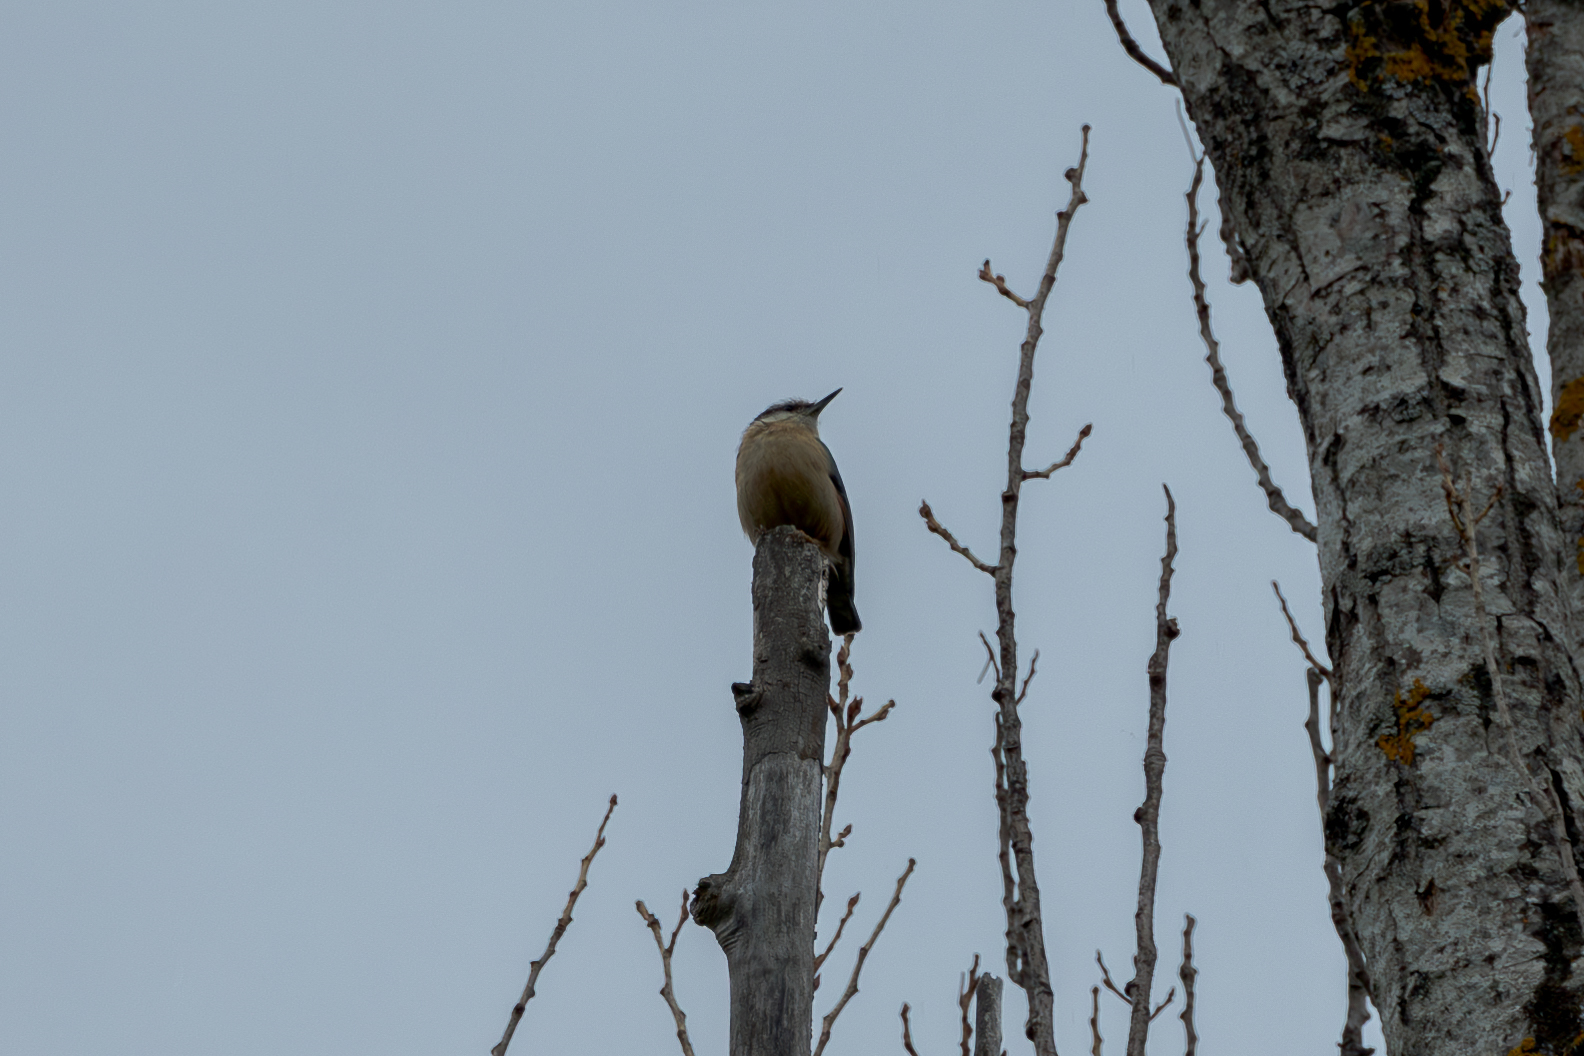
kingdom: Animalia
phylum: Chordata
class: Aves
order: Passeriformes
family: Sittidae
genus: Sitta
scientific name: Sitta europaea
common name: Eurasian nuthatch
